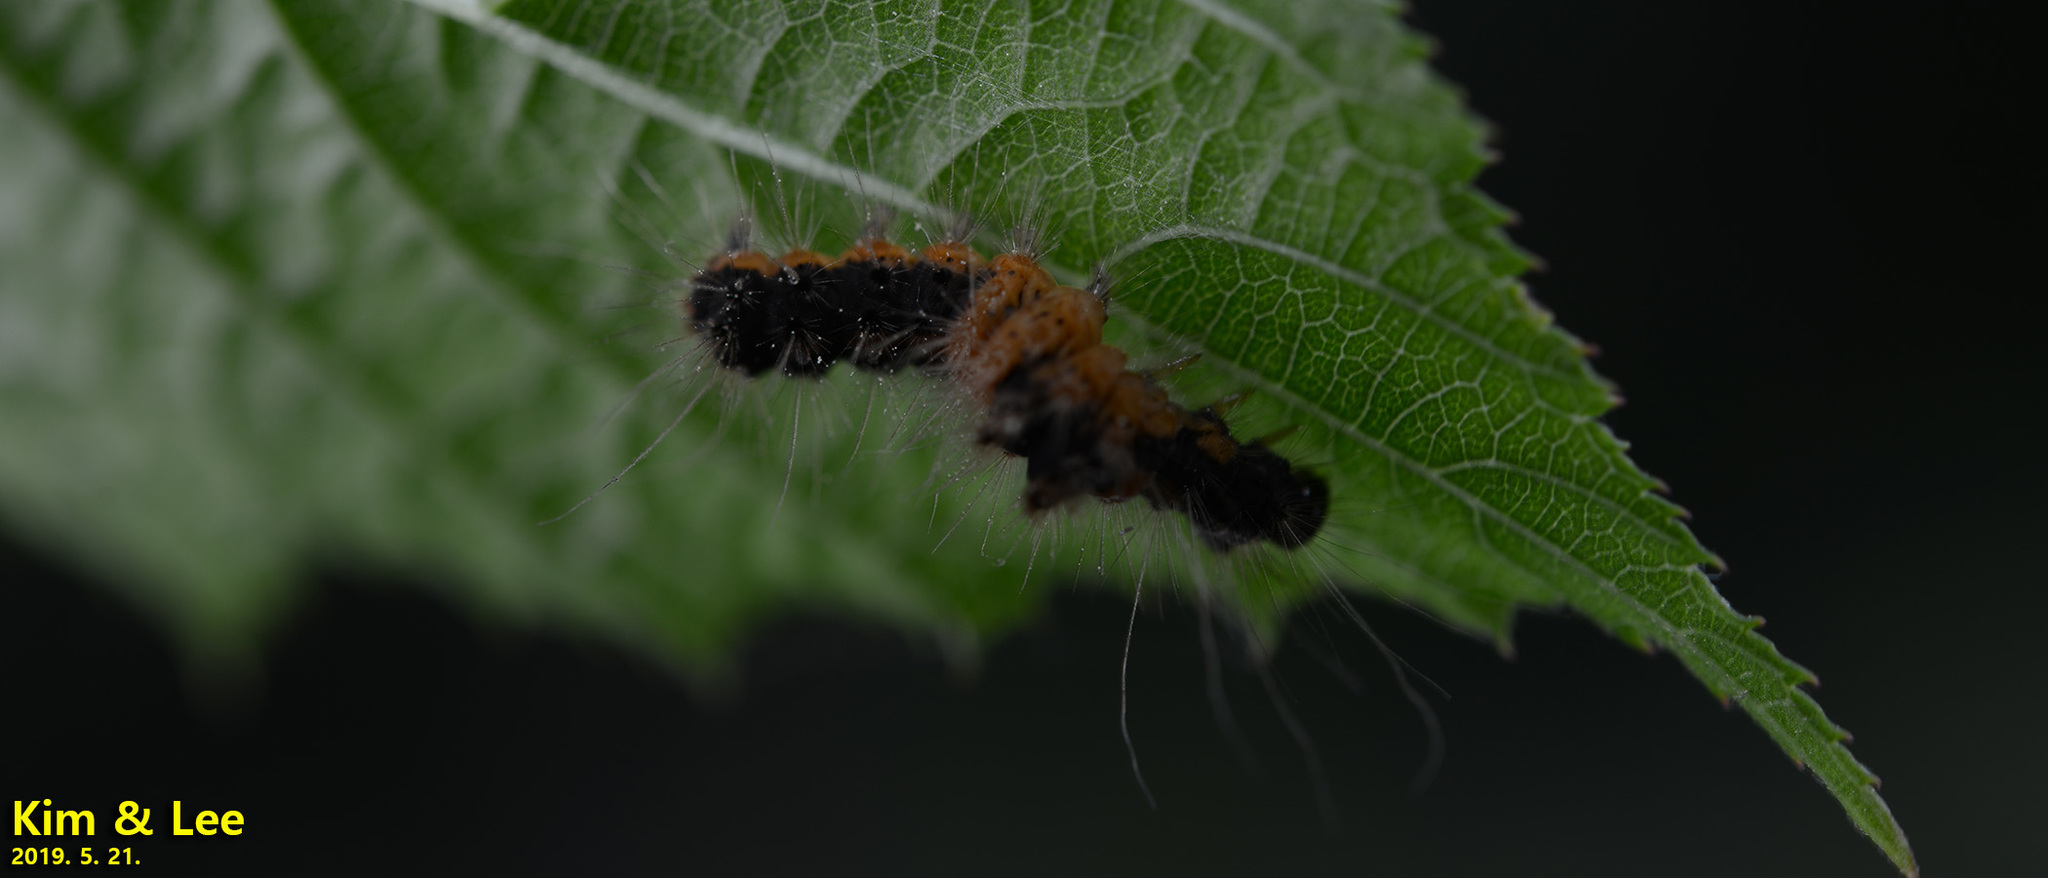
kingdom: Animalia
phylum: Arthropoda
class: Insecta
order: Lepidoptera
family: Erebidae
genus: Euproctis
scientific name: Euproctis subflava
